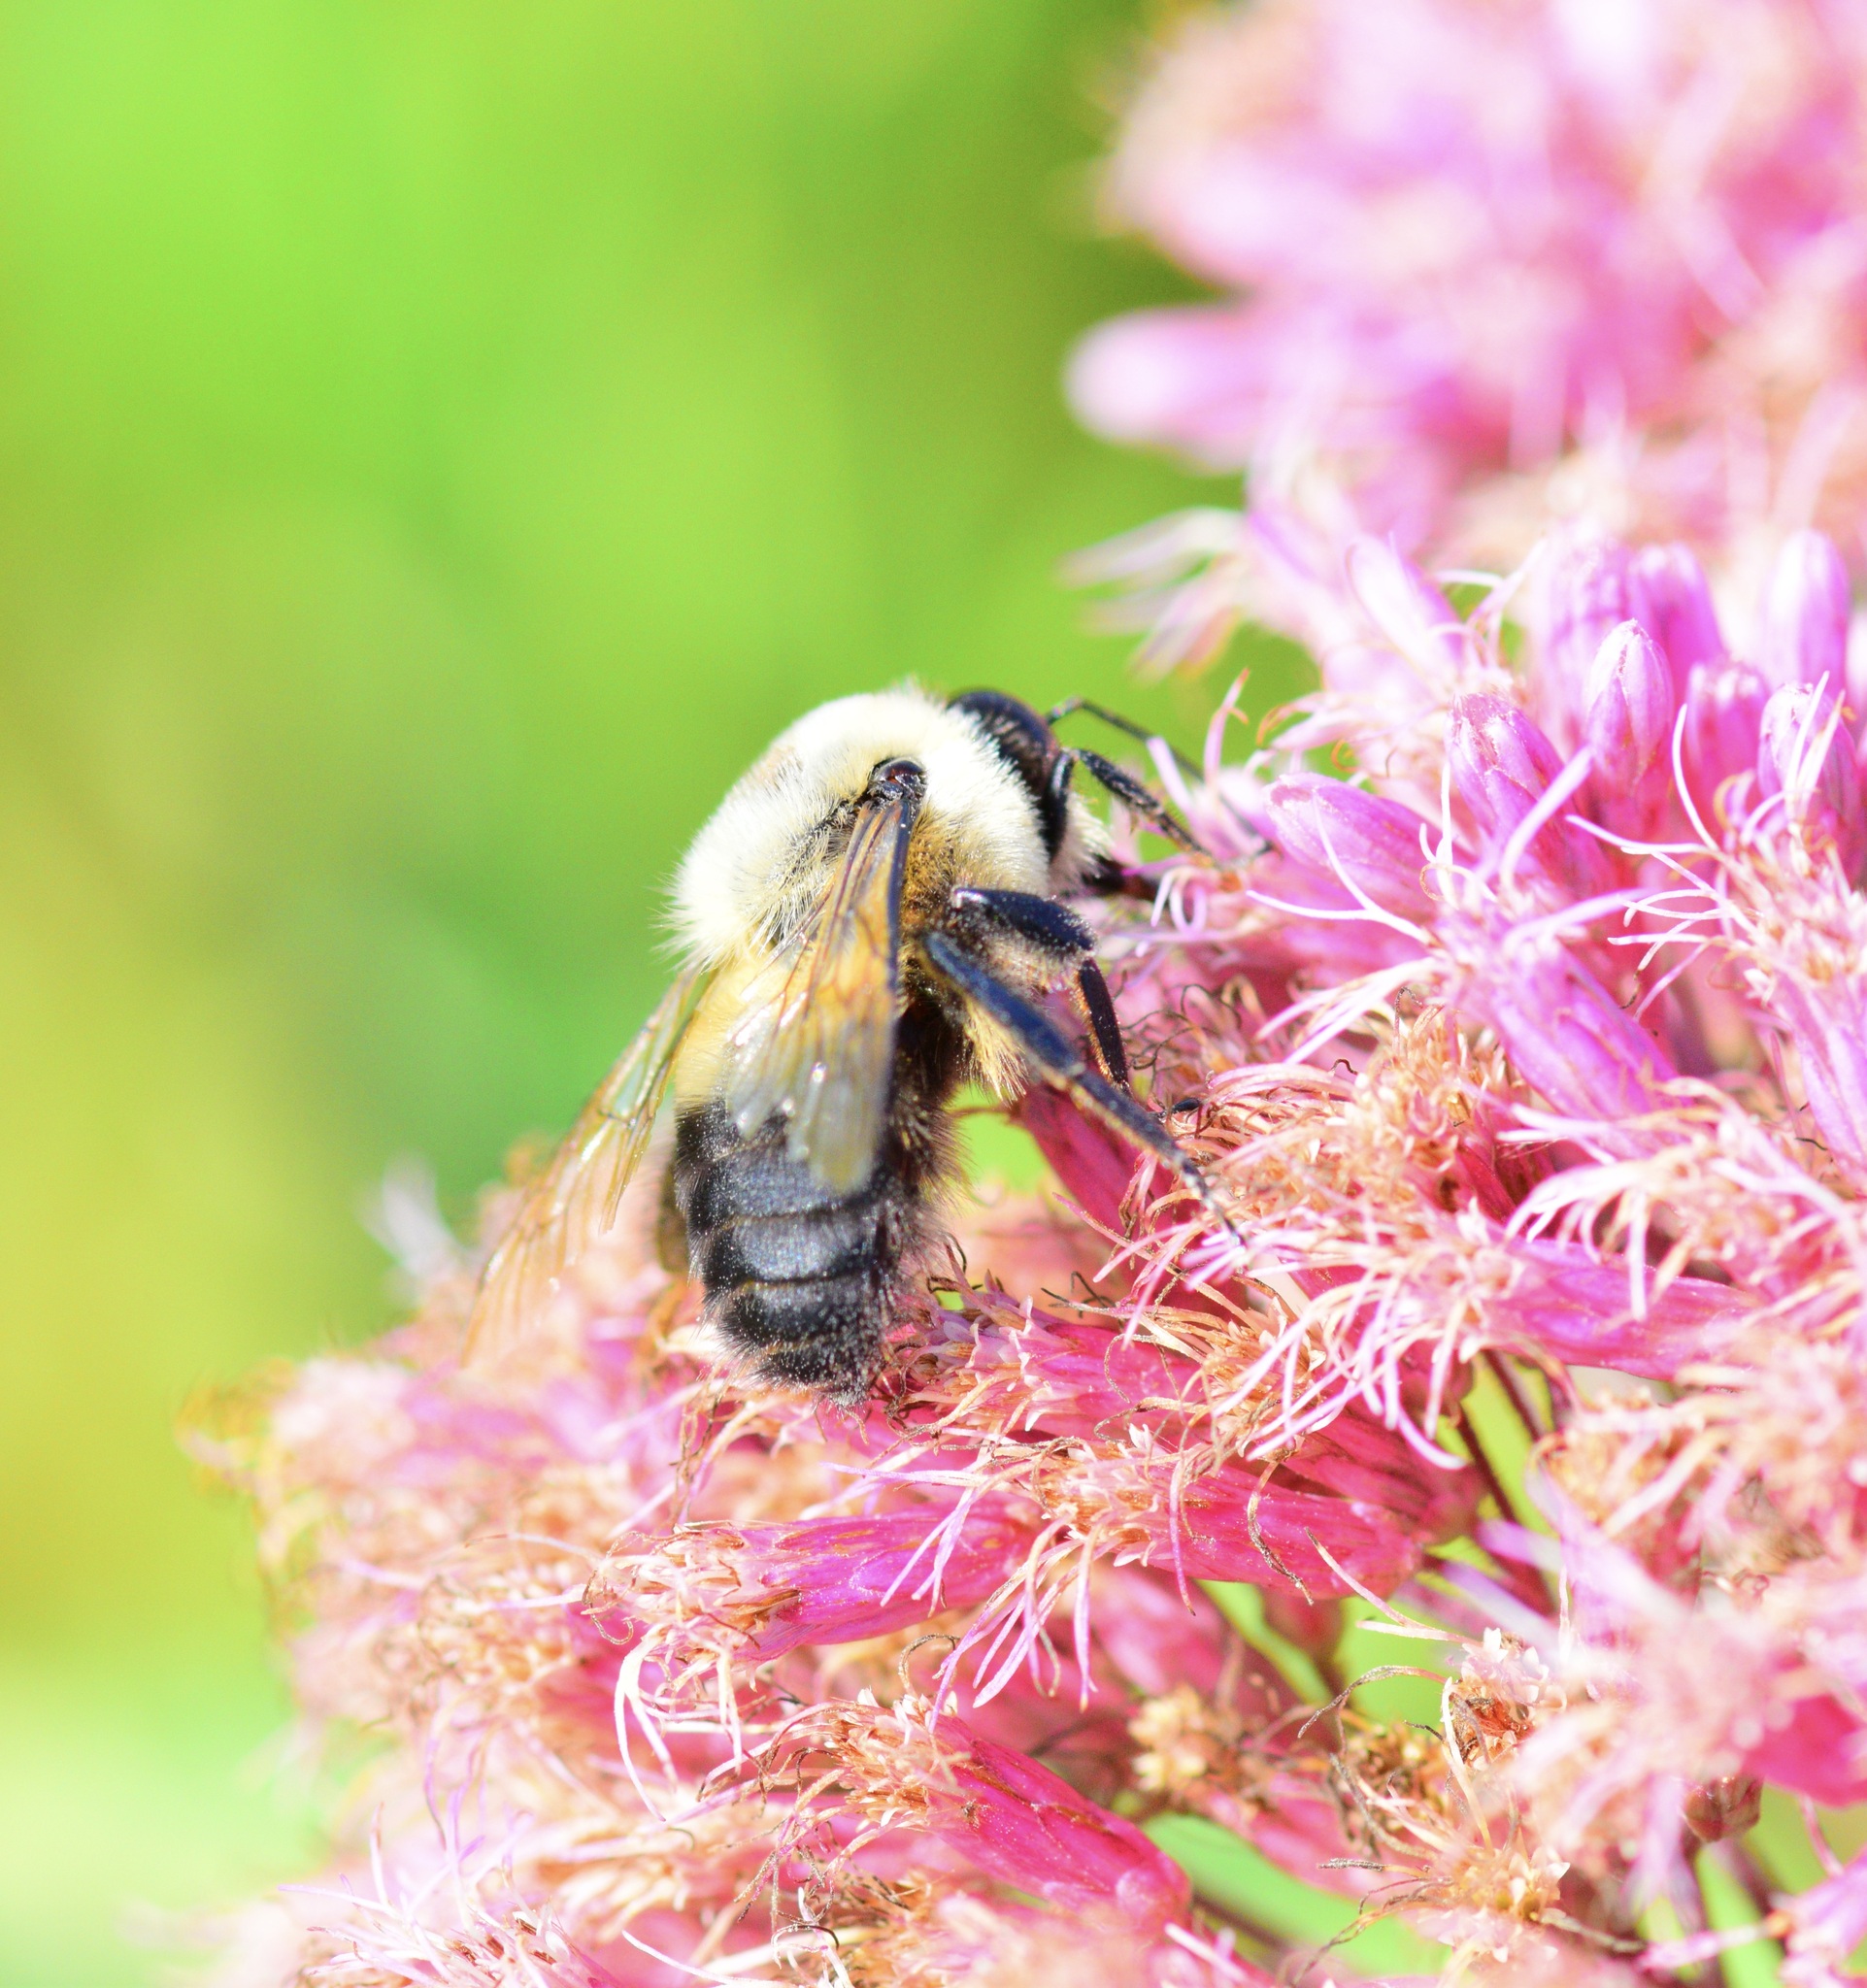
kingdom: Animalia
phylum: Arthropoda
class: Insecta
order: Hymenoptera
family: Apidae
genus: Bombus
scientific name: Bombus griseocollis
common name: Brown-belted bumble bee
